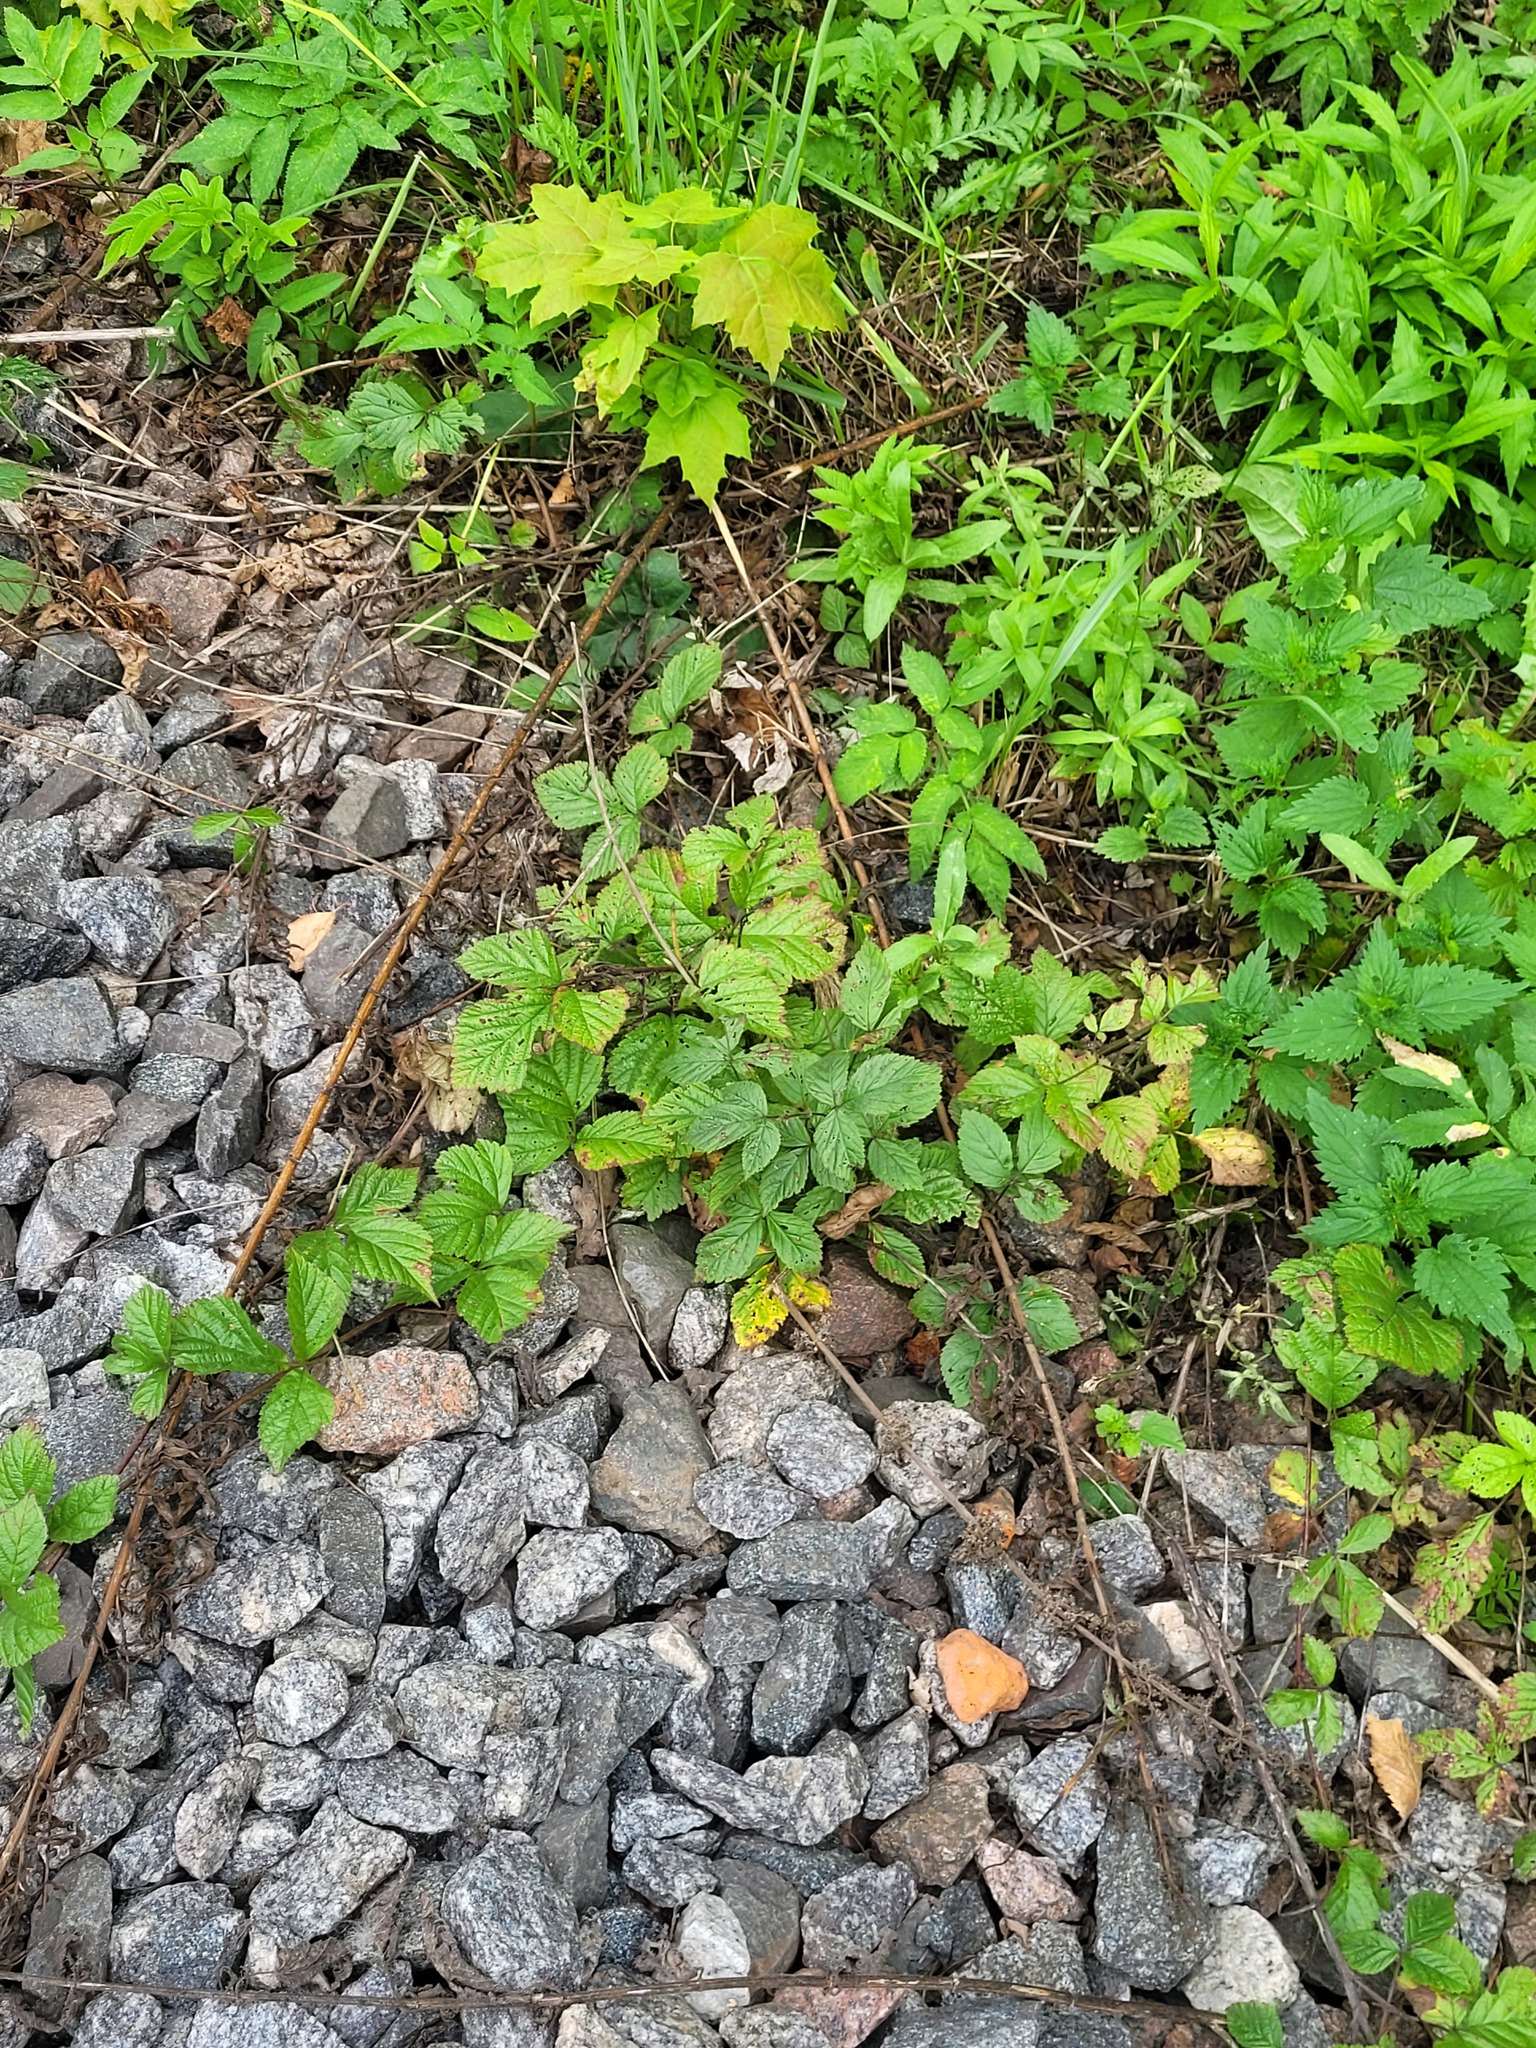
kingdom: Plantae
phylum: Tracheophyta
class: Magnoliopsida
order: Rosales
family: Rosaceae
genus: Rubus
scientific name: Rubus saxatilis
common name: Stone bramble
